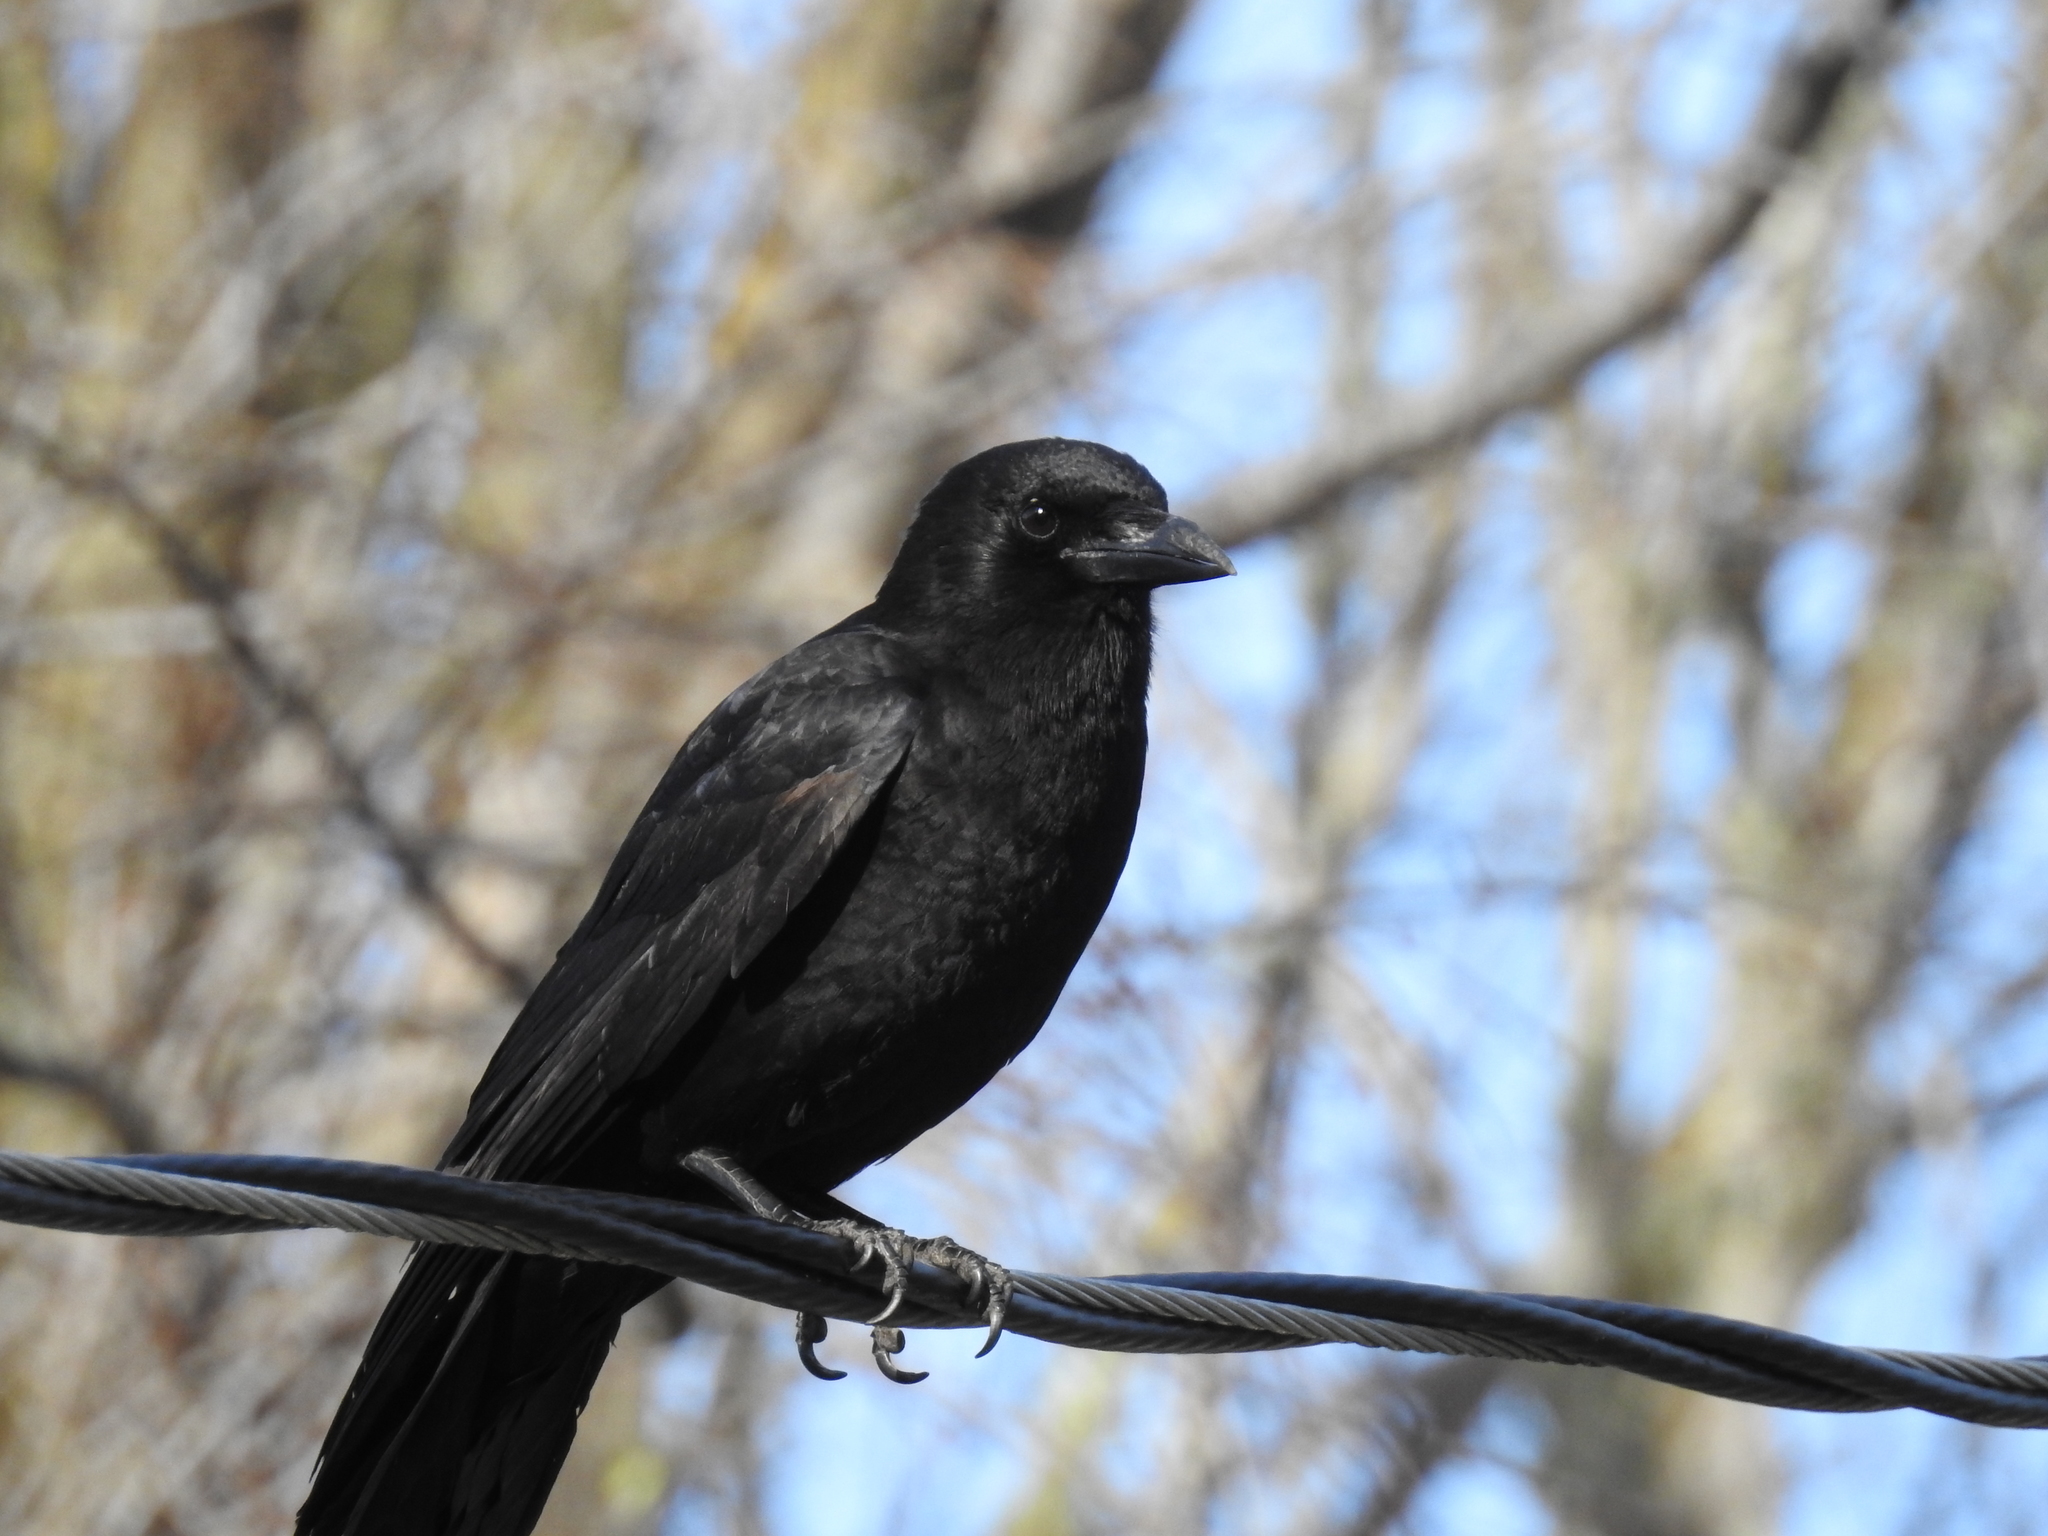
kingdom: Animalia
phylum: Chordata
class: Aves
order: Passeriformes
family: Corvidae
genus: Corvus
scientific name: Corvus brachyrhynchos
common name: American crow
